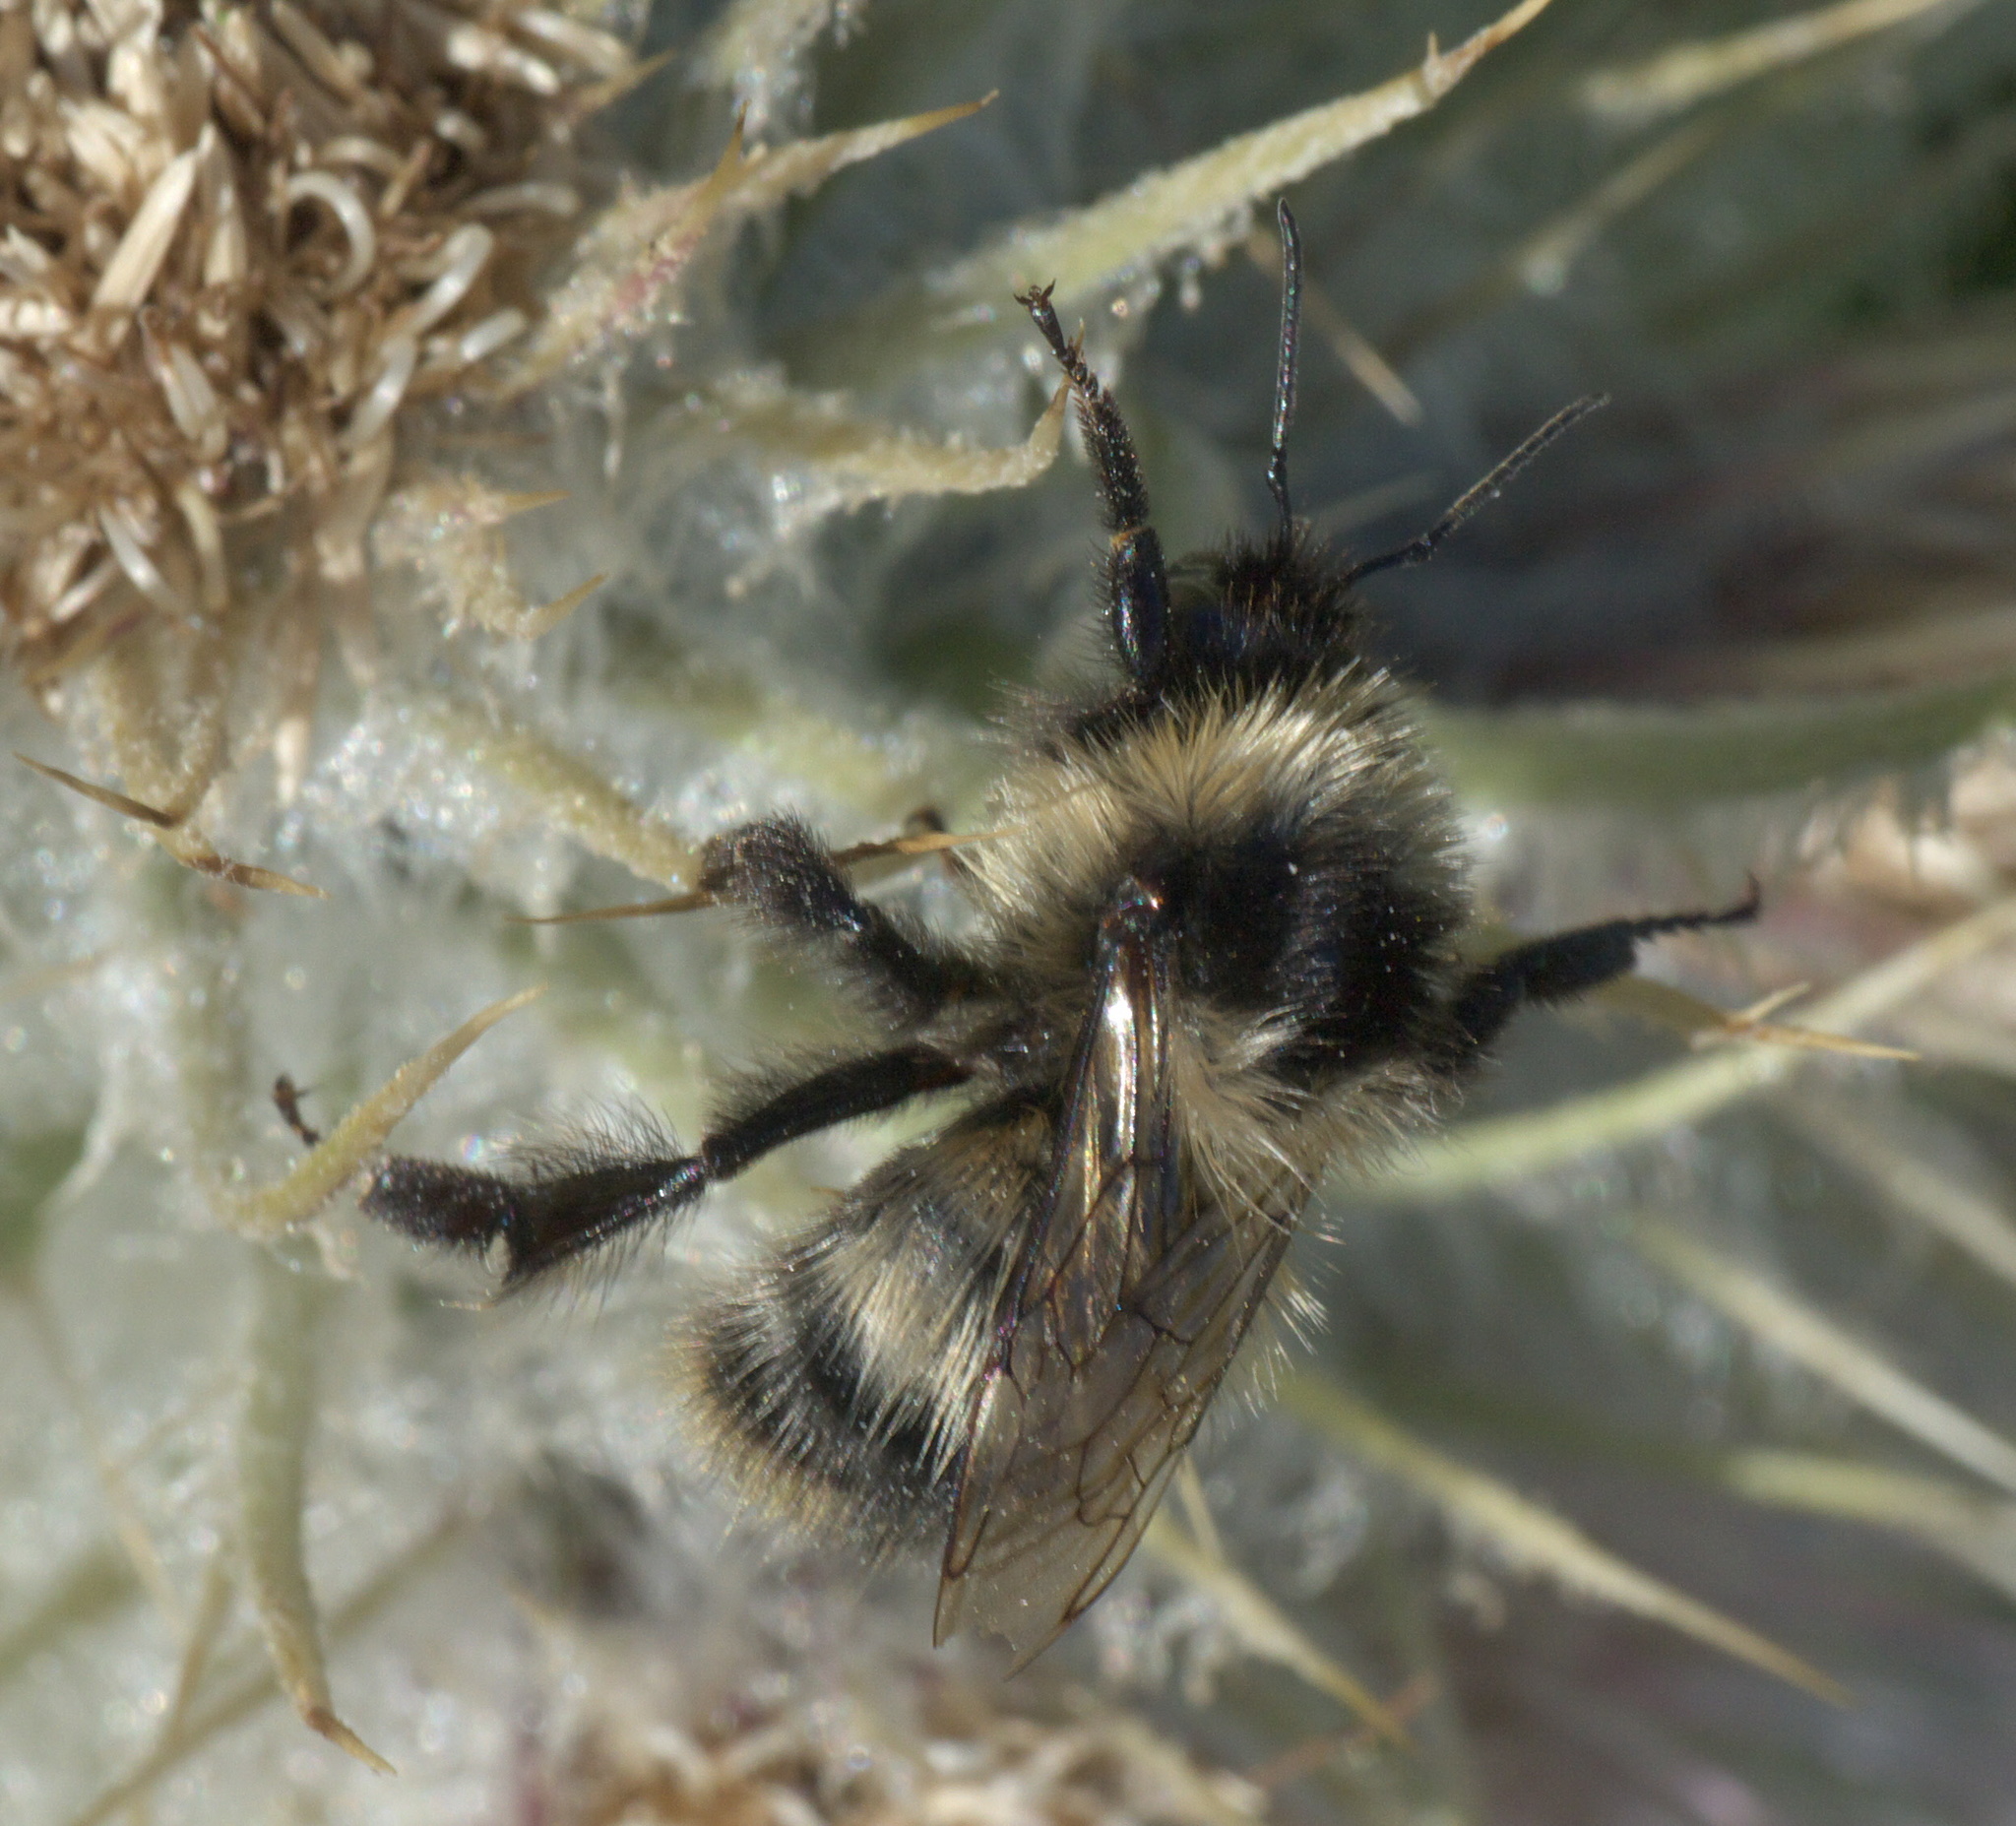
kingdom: Animalia
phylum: Arthropoda
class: Insecta
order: Hymenoptera
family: Apidae
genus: Bombus
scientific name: Bombus kirbiellus
